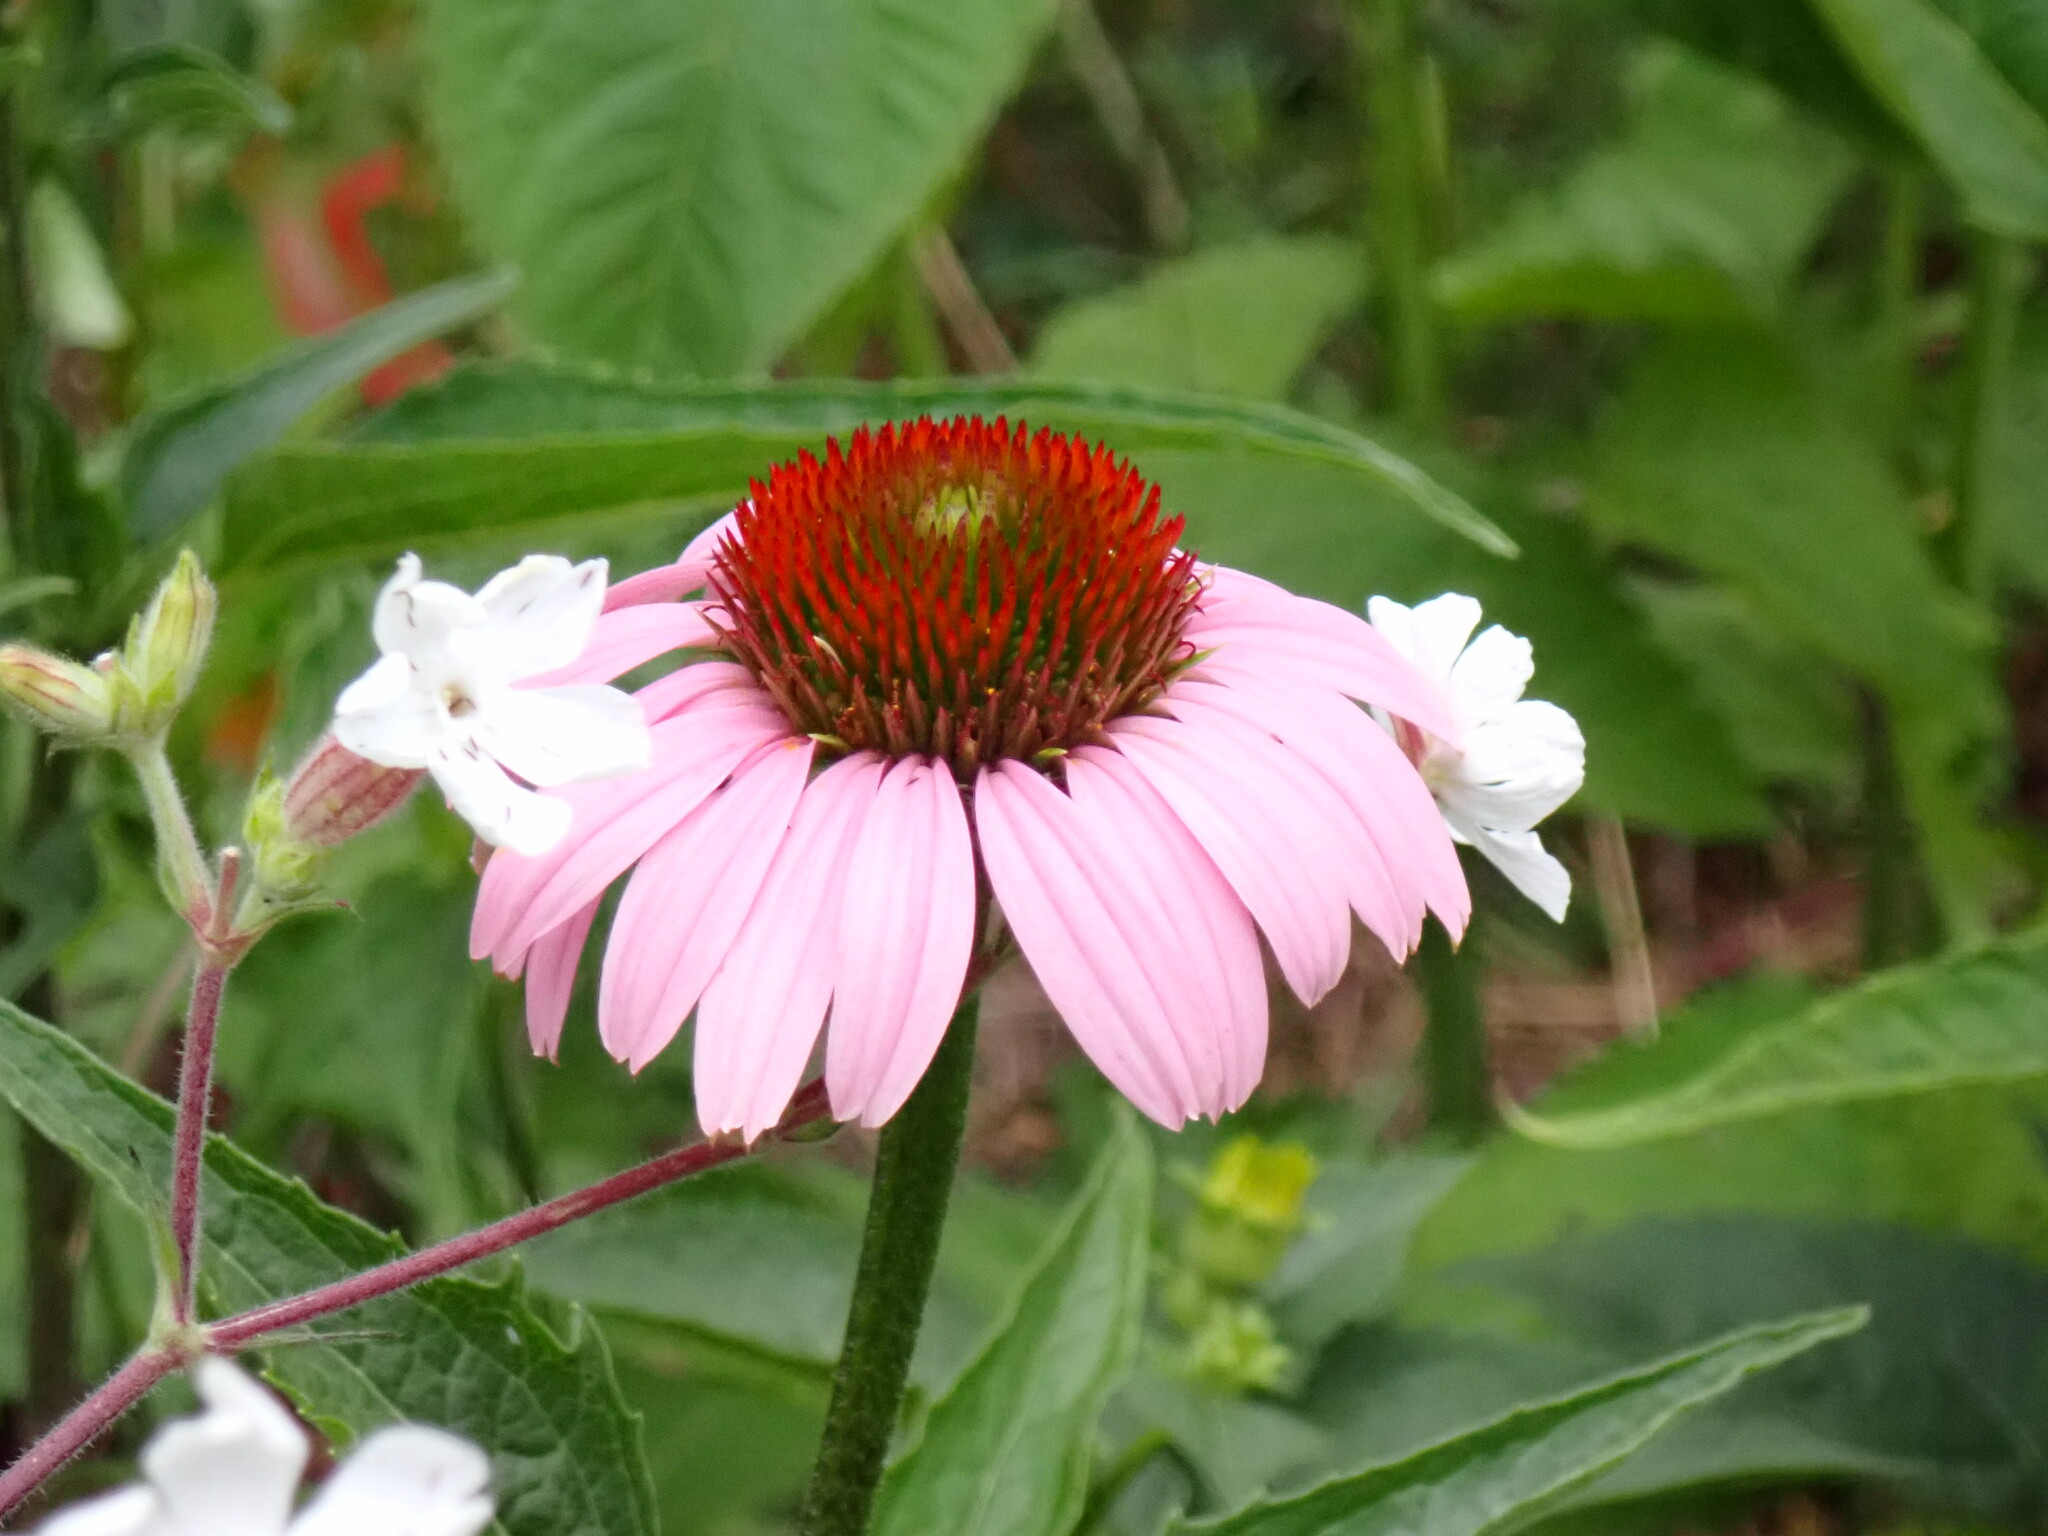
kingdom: Plantae
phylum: Tracheophyta
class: Magnoliopsida
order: Asterales
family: Asteraceae
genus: Echinacea
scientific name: Echinacea purpurea
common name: Broad-leaved purple coneflower
